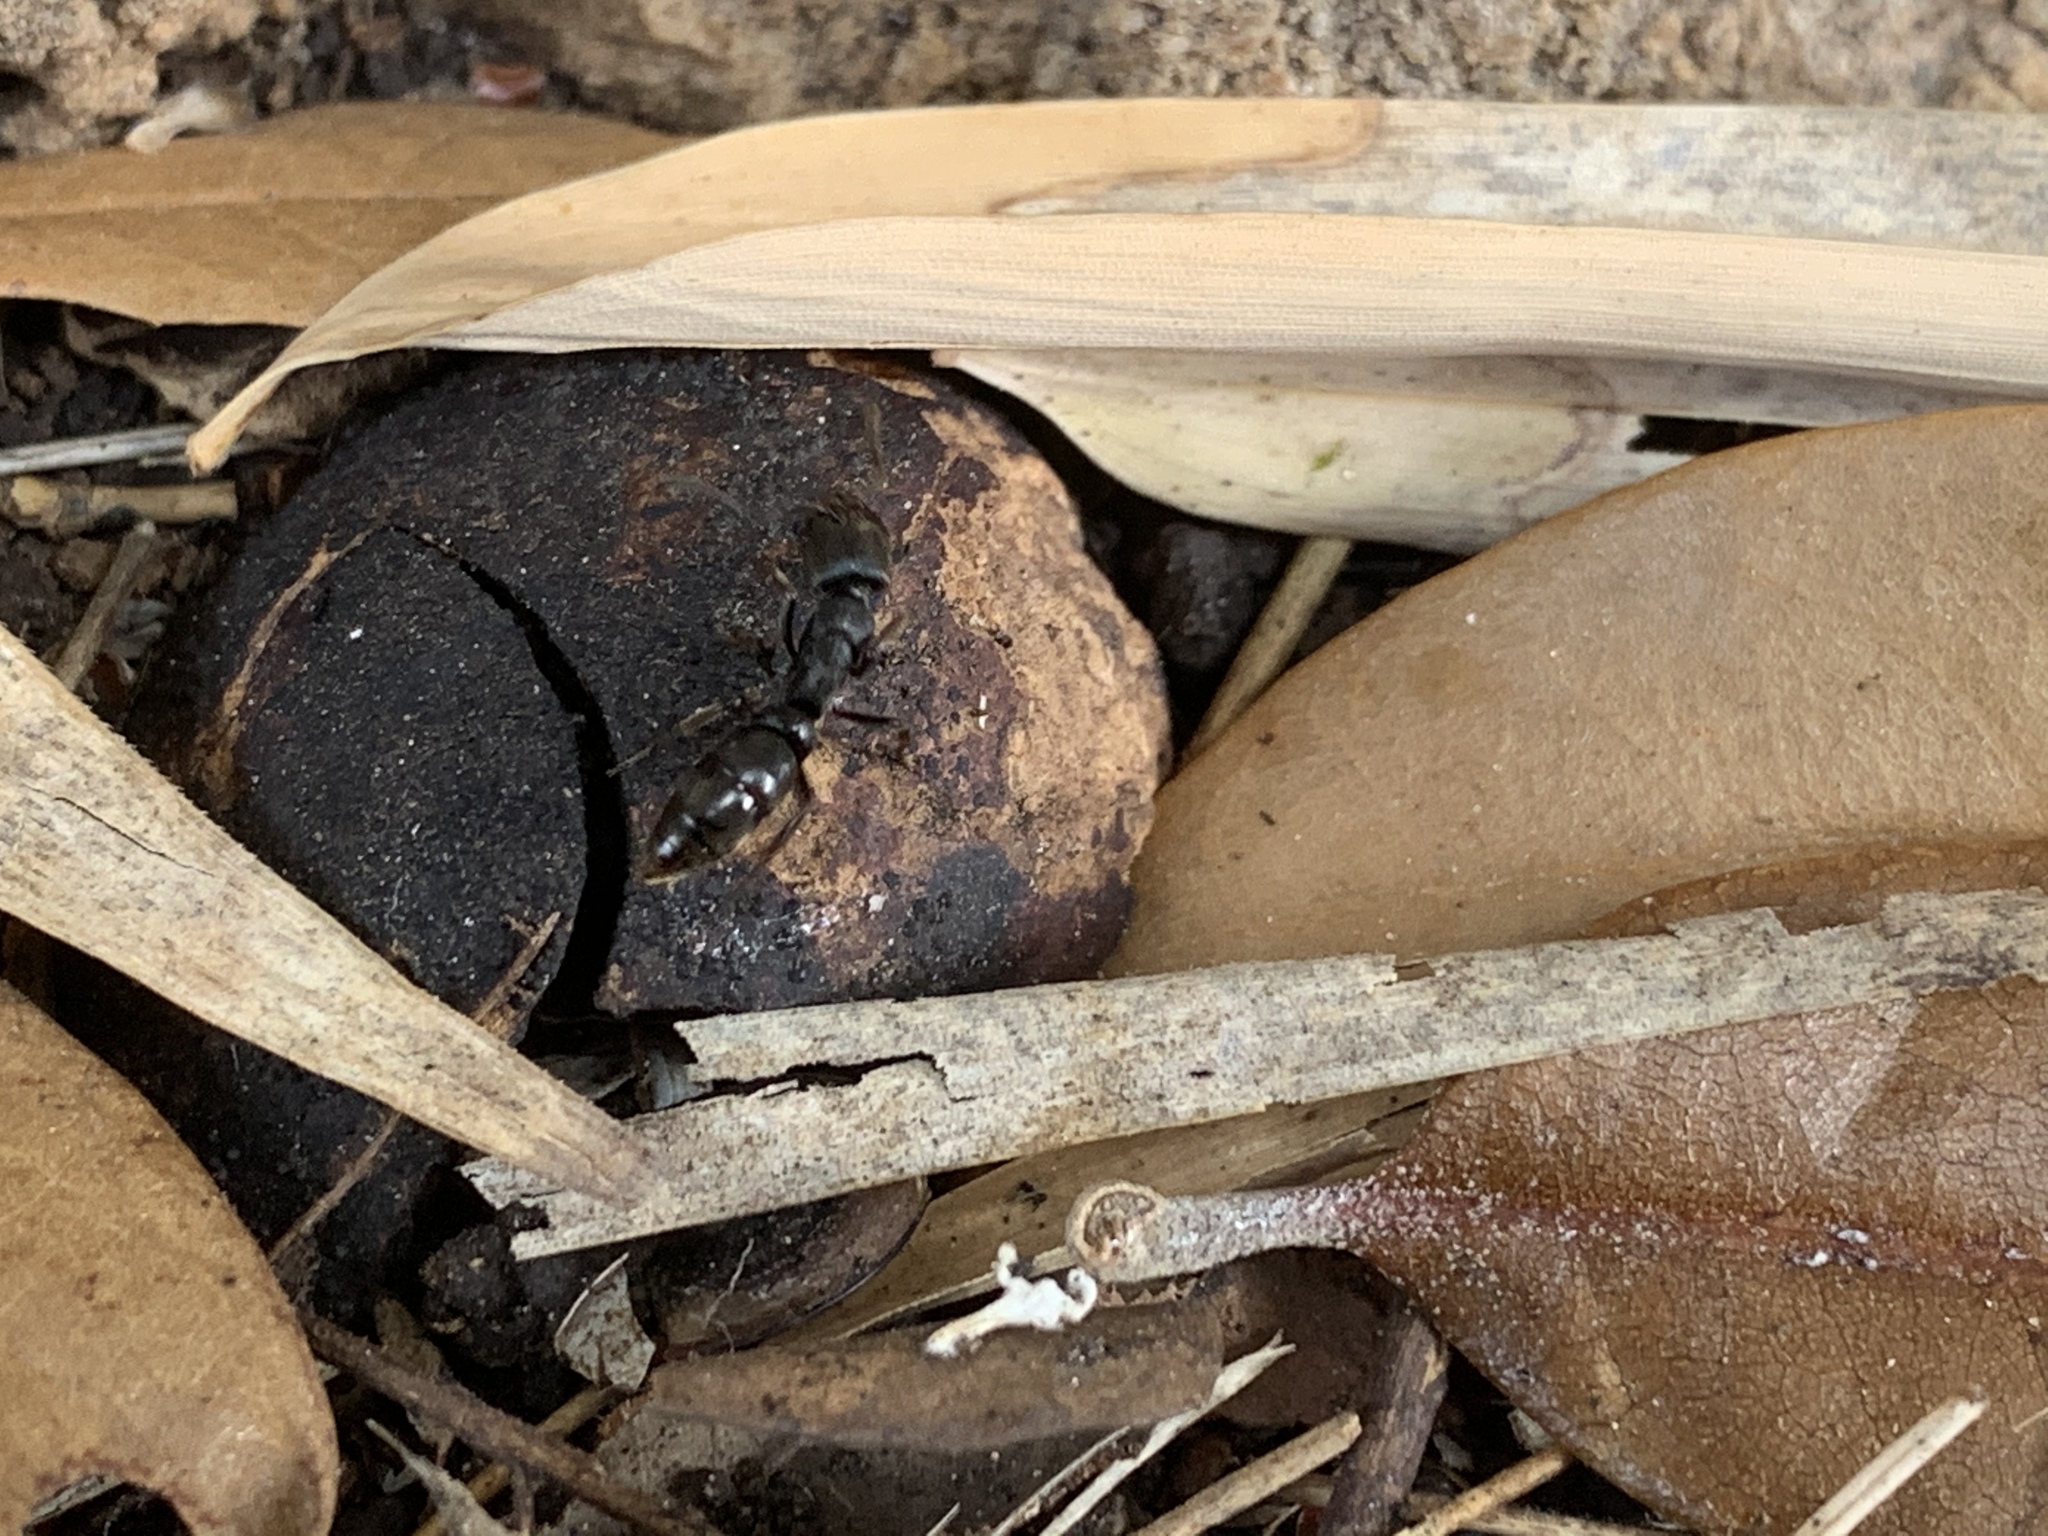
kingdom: Animalia
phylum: Arthropoda
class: Insecta
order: Hymenoptera
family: Formicidae
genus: Pachycondyla
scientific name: Pachycondyla harpax
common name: Ant
